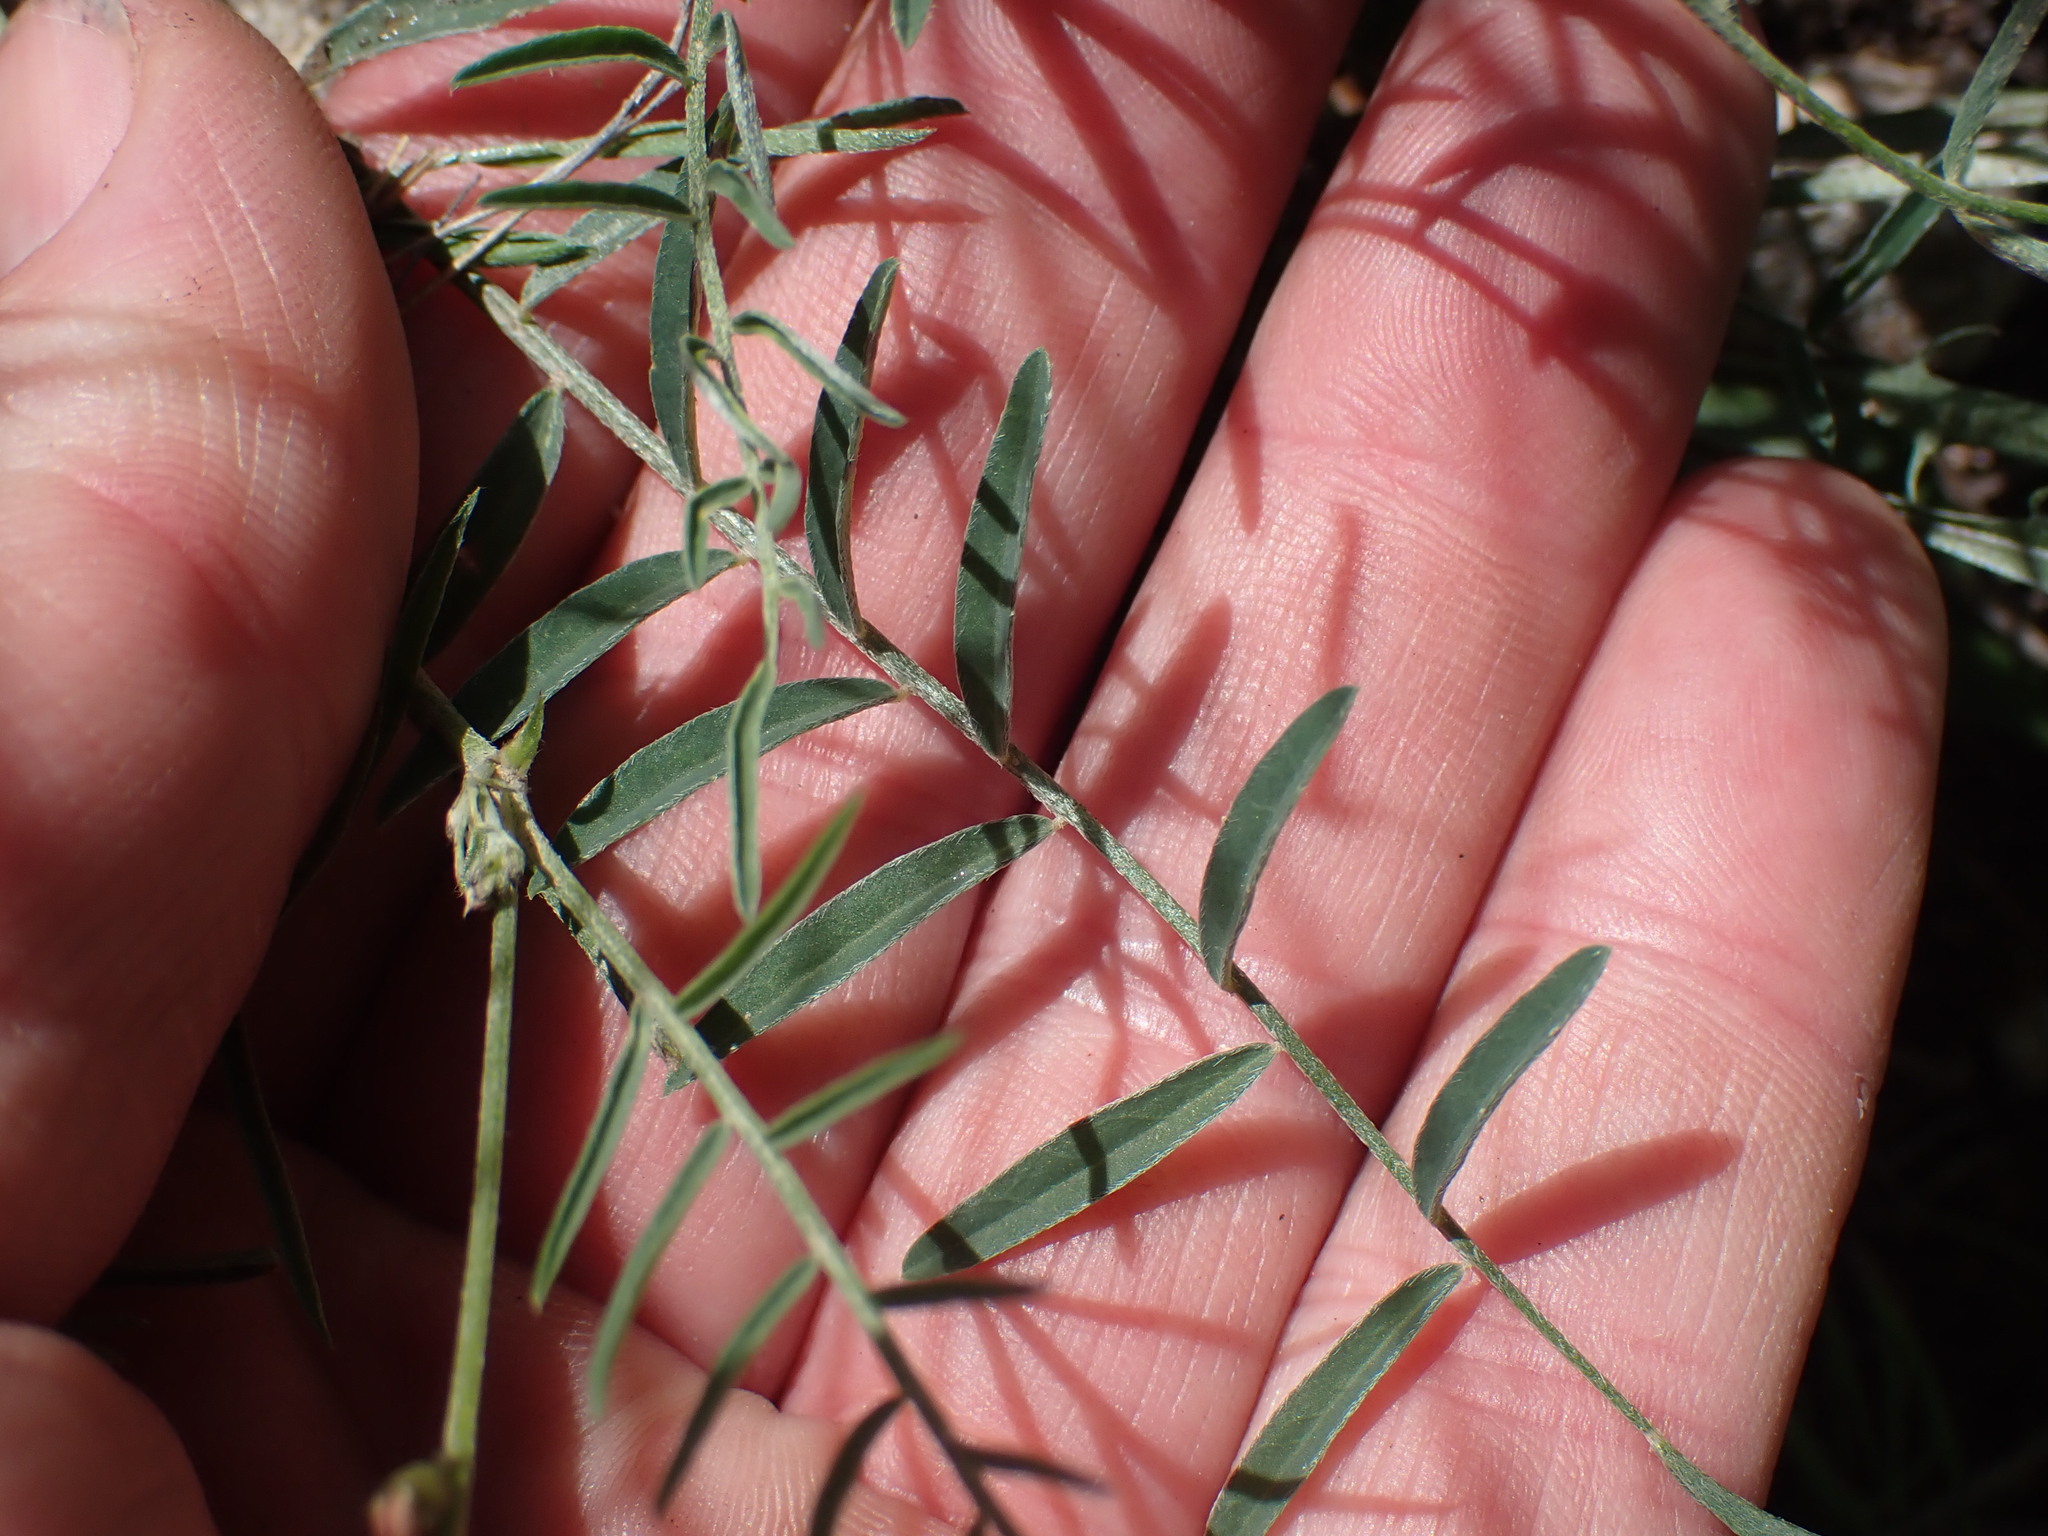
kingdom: Plantae
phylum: Tracheophyta
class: Magnoliopsida
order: Fabales
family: Fabaceae
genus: Astragalus
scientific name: Astragalus miser
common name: Timber milkvetch
